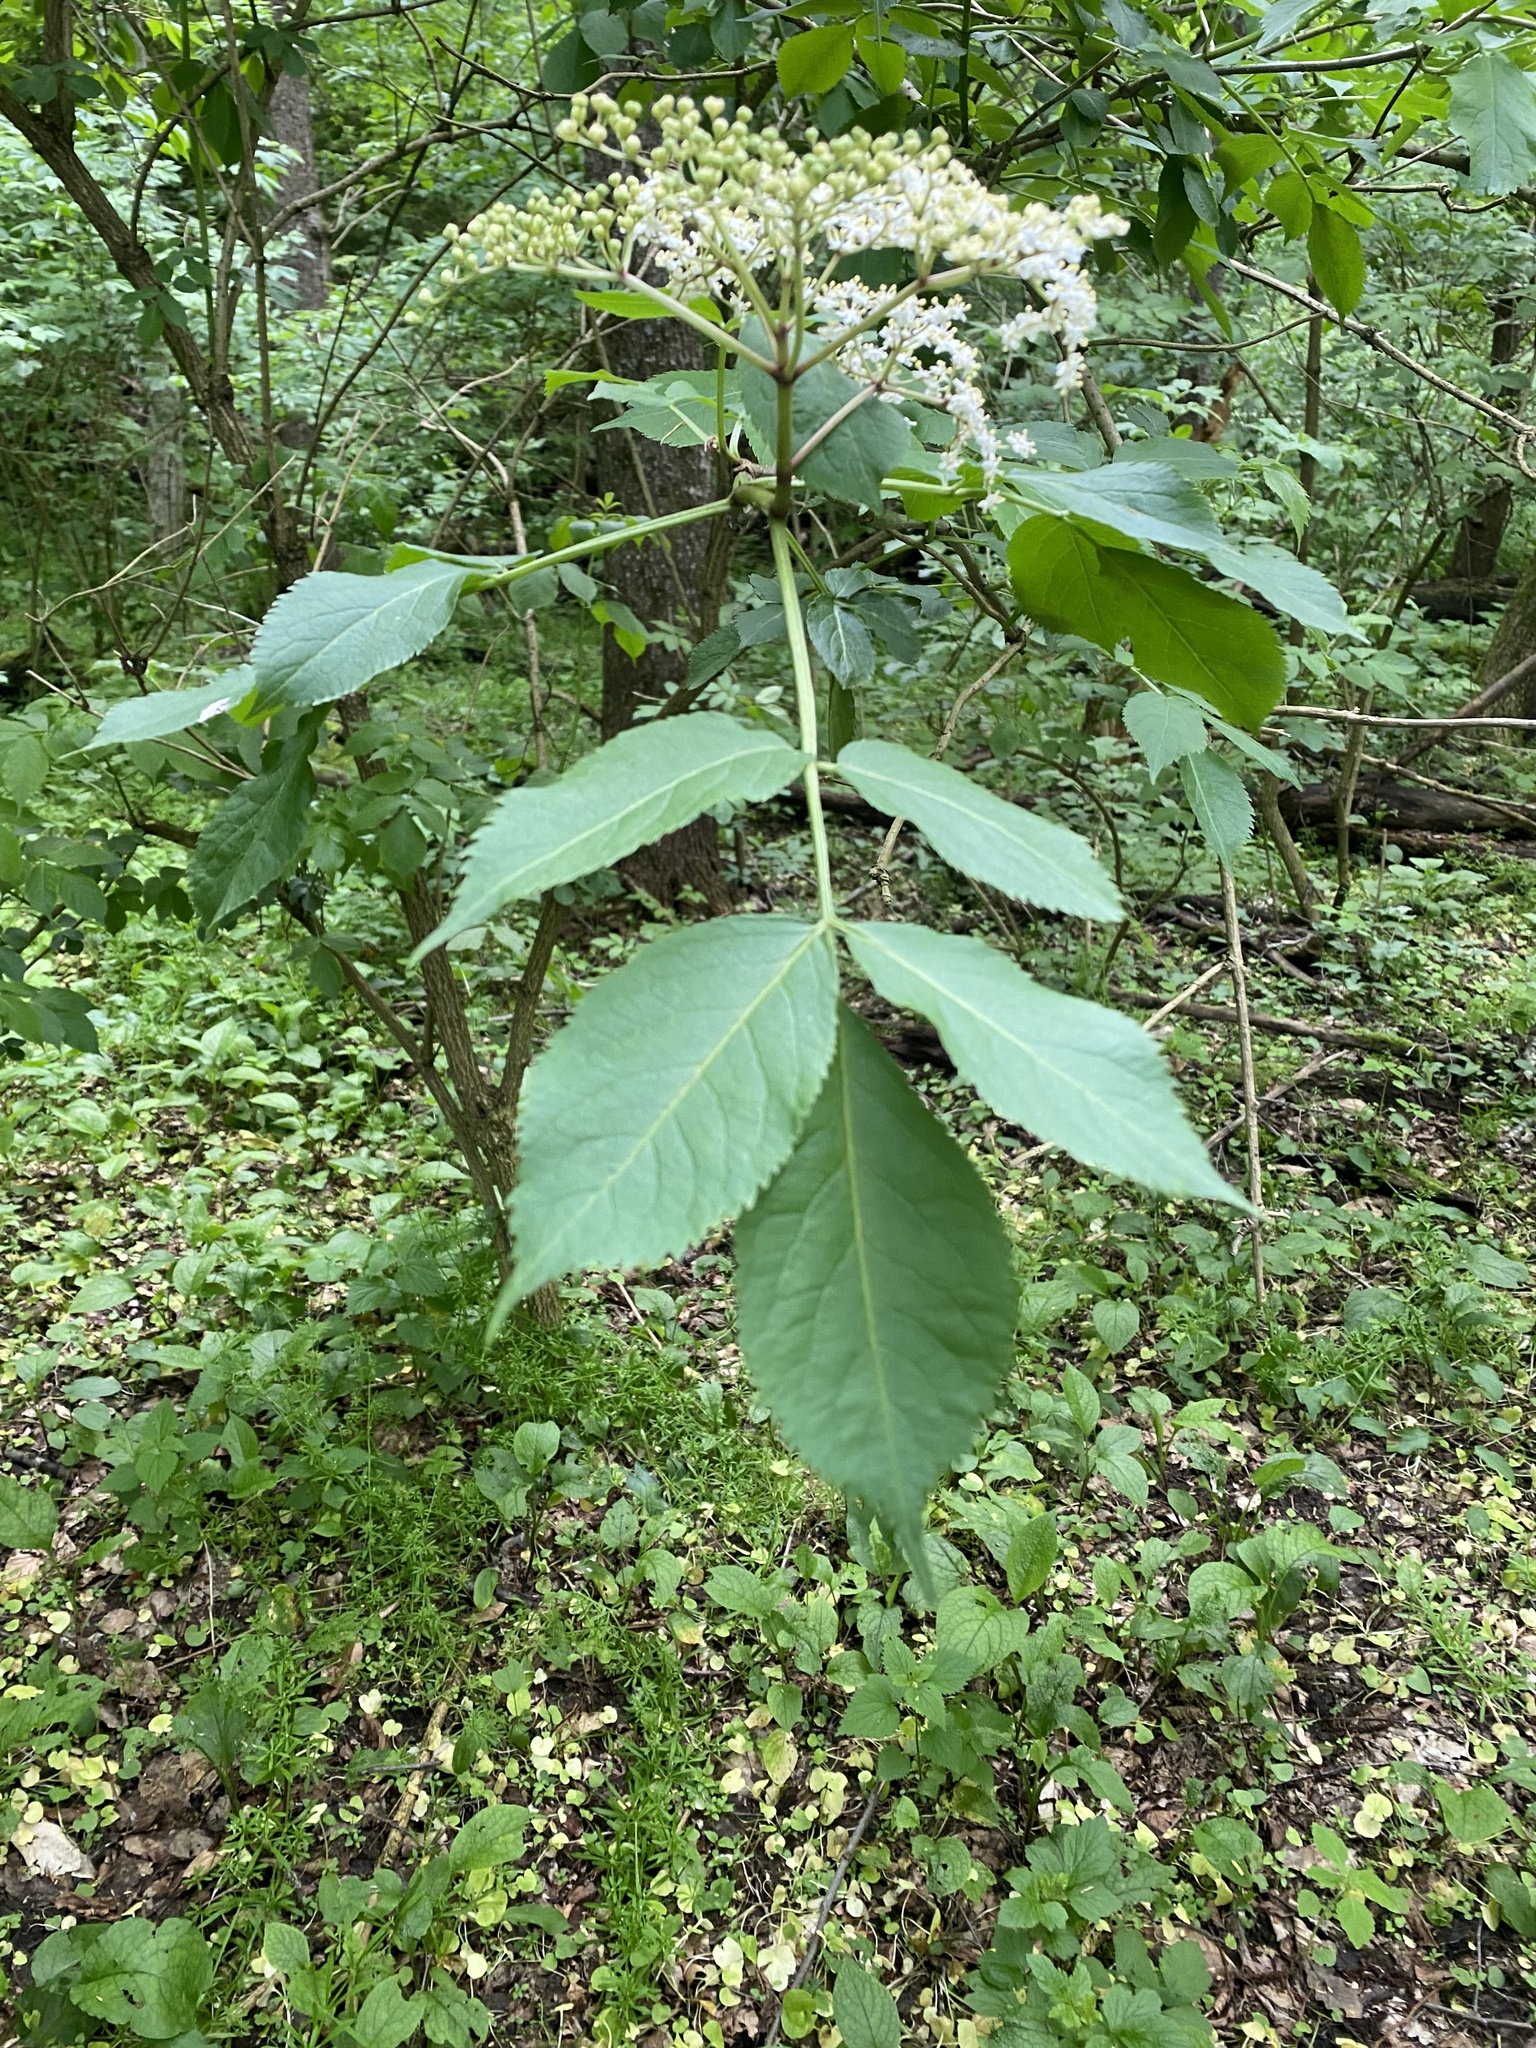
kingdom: Plantae
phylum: Tracheophyta
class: Magnoliopsida
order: Dipsacales
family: Viburnaceae
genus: Sambucus
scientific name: Sambucus nigra
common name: Elder
